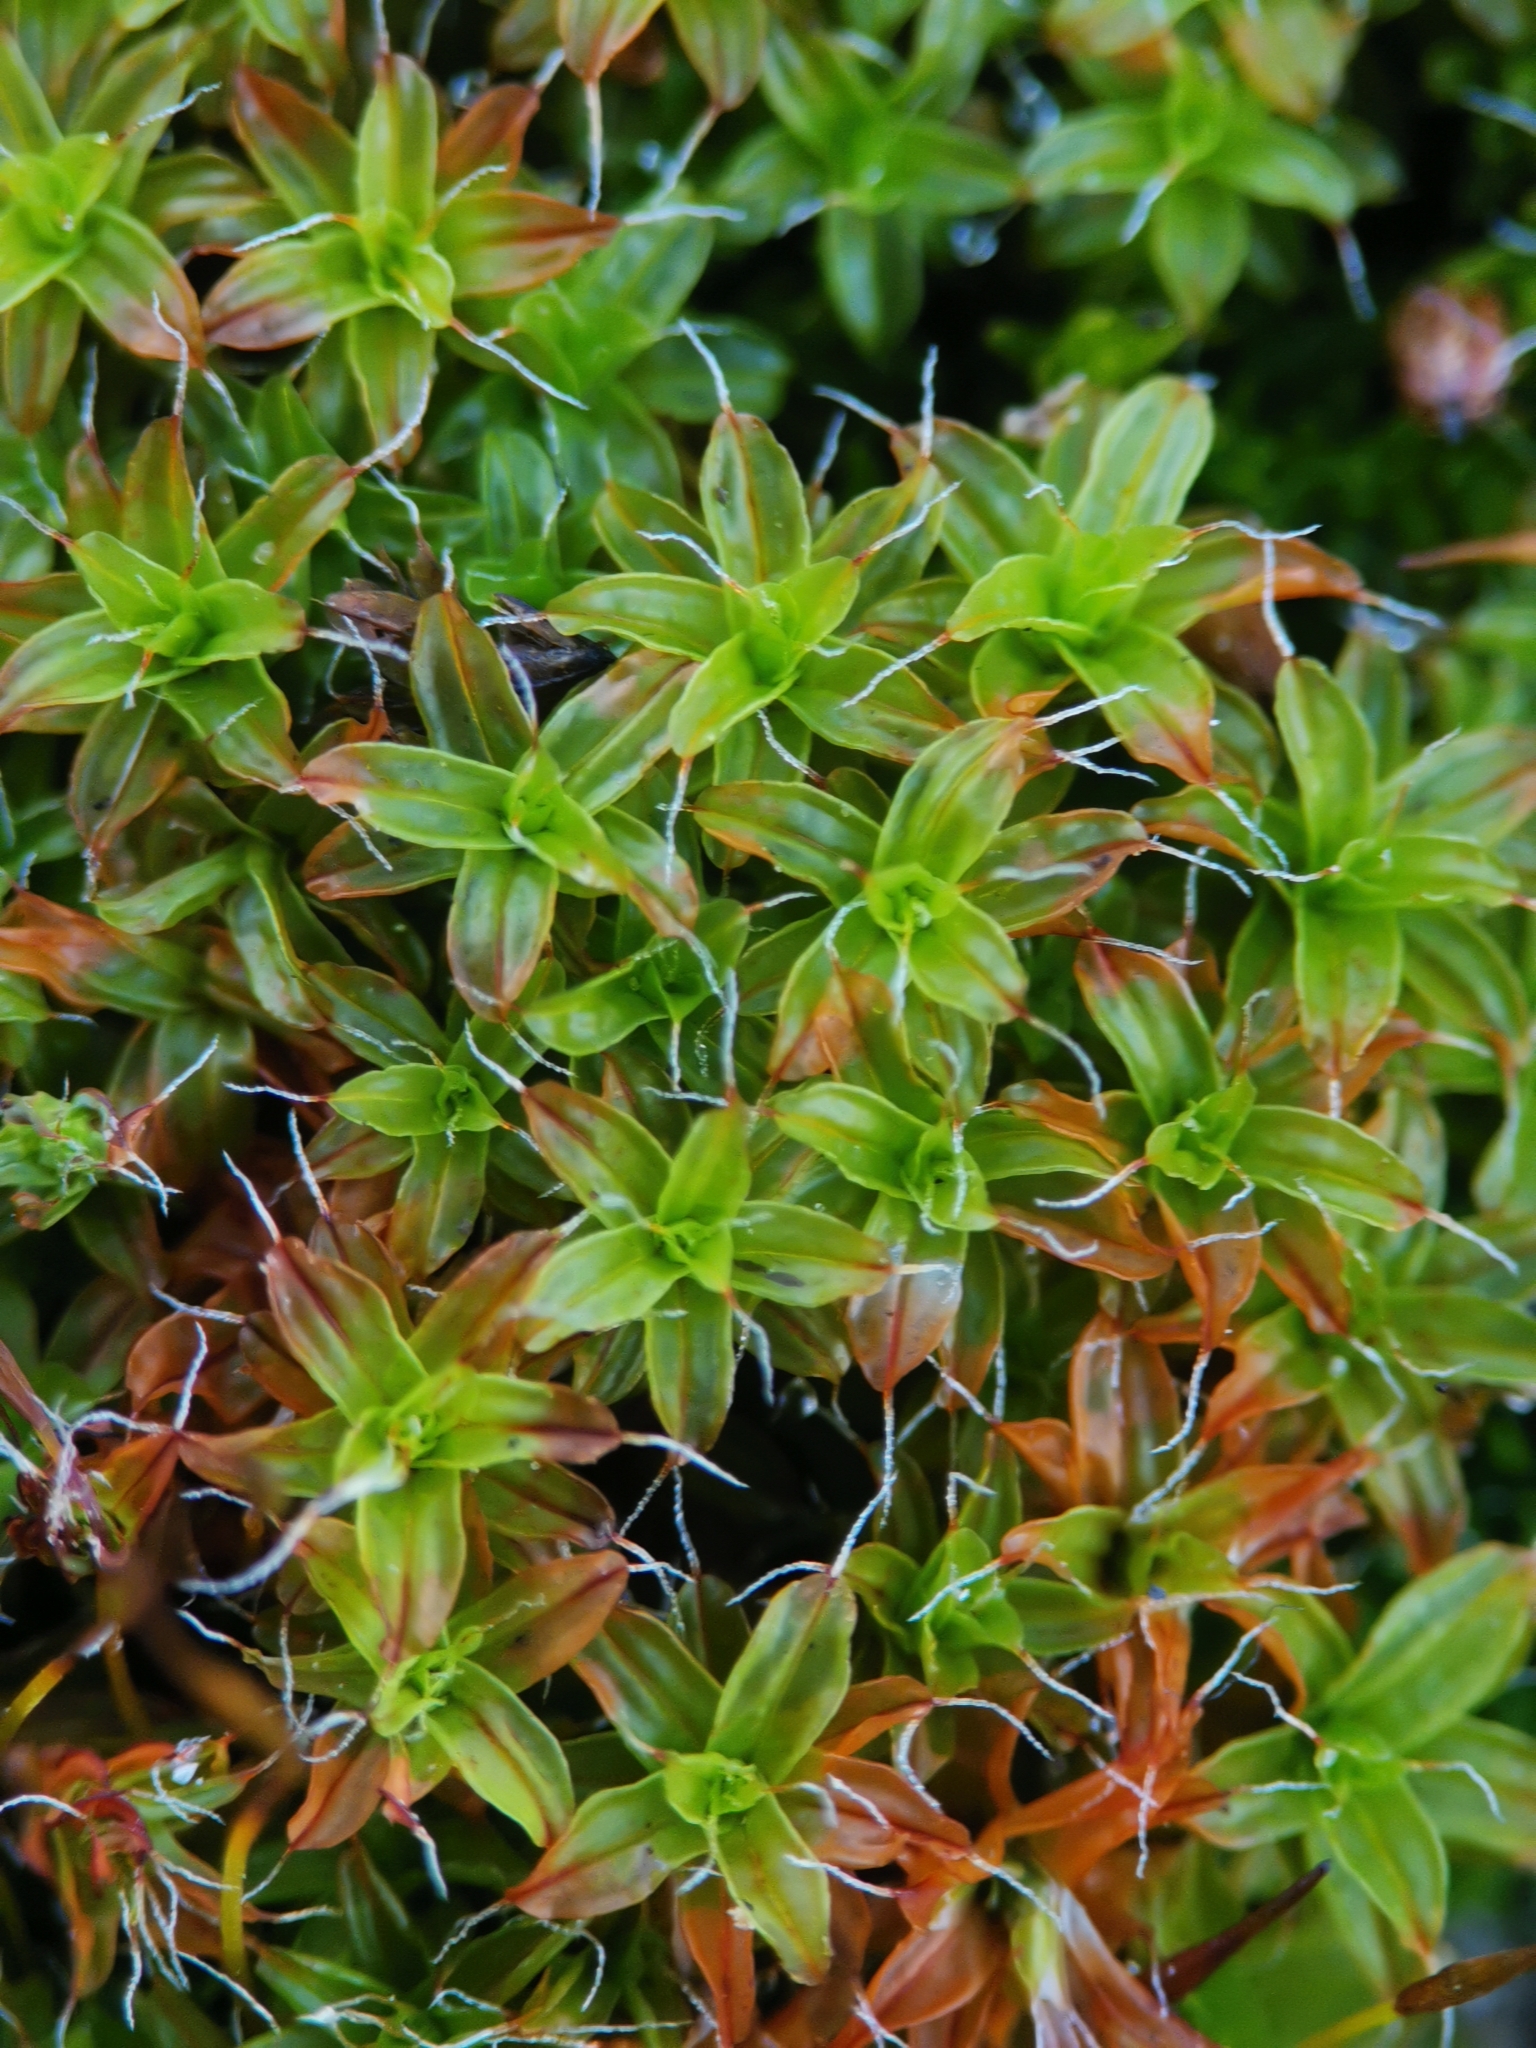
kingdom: Plantae
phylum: Bryophyta
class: Bryopsida
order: Pottiales
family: Pottiaceae
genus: Syntrichia
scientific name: Syntrichia ruralis
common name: Sidewalk screw moss
